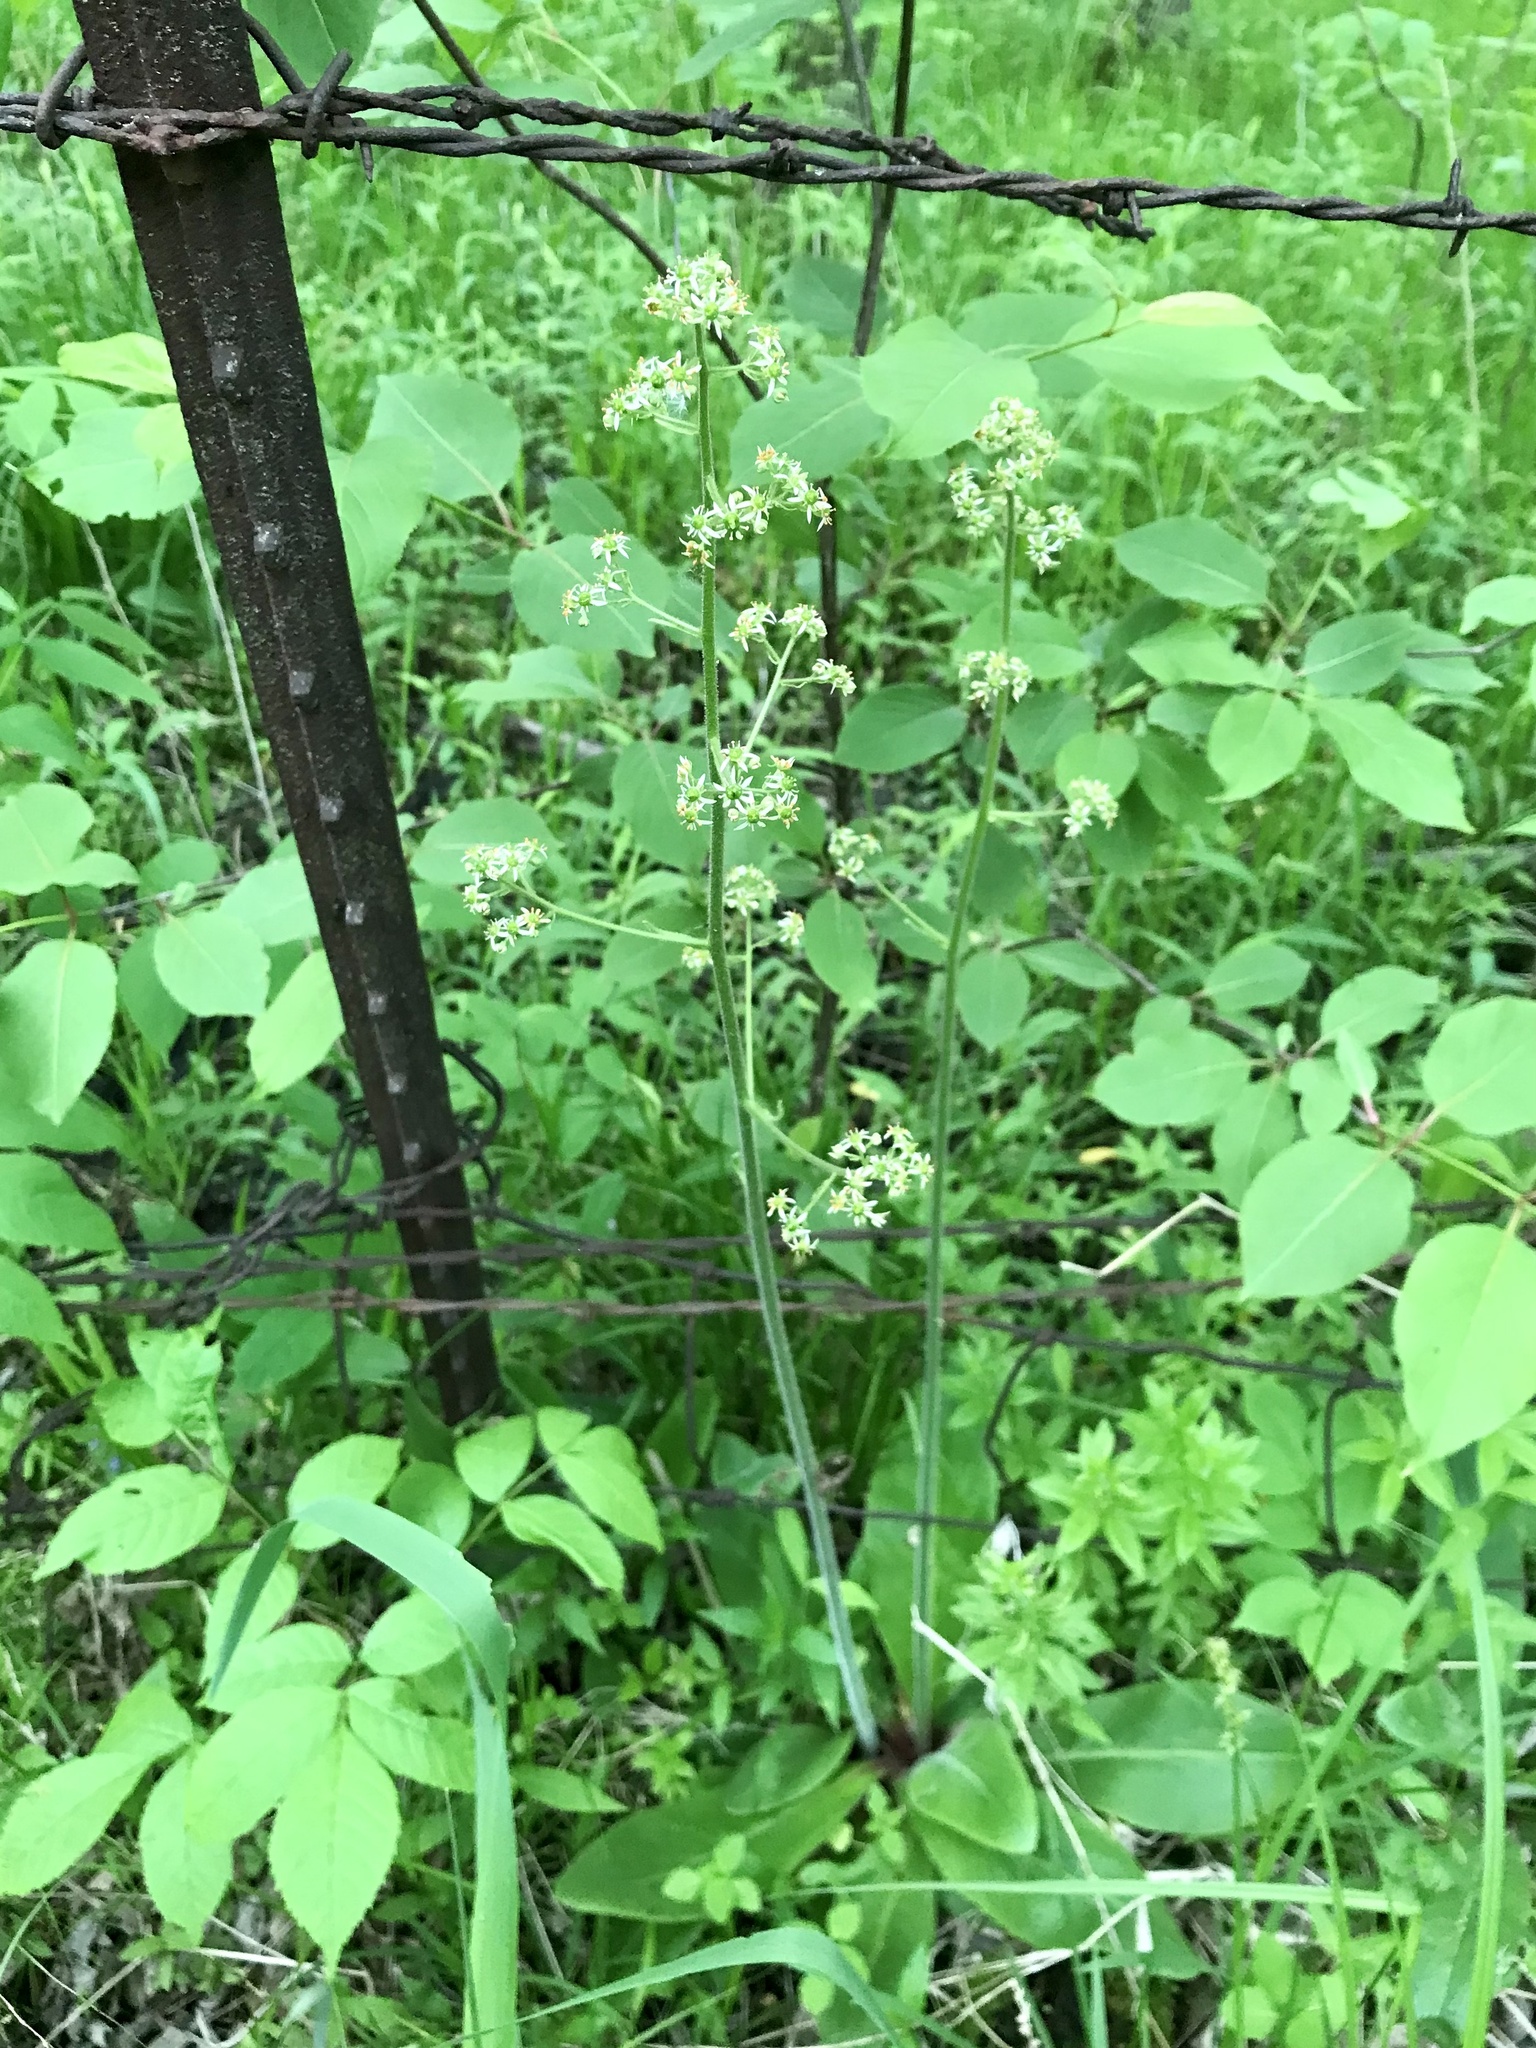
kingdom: Plantae
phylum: Tracheophyta
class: Magnoliopsida
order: Saxifragales
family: Saxifragaceae
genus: Micranthes
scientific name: Micranthes pensylvanica
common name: Marsh saxifrage
